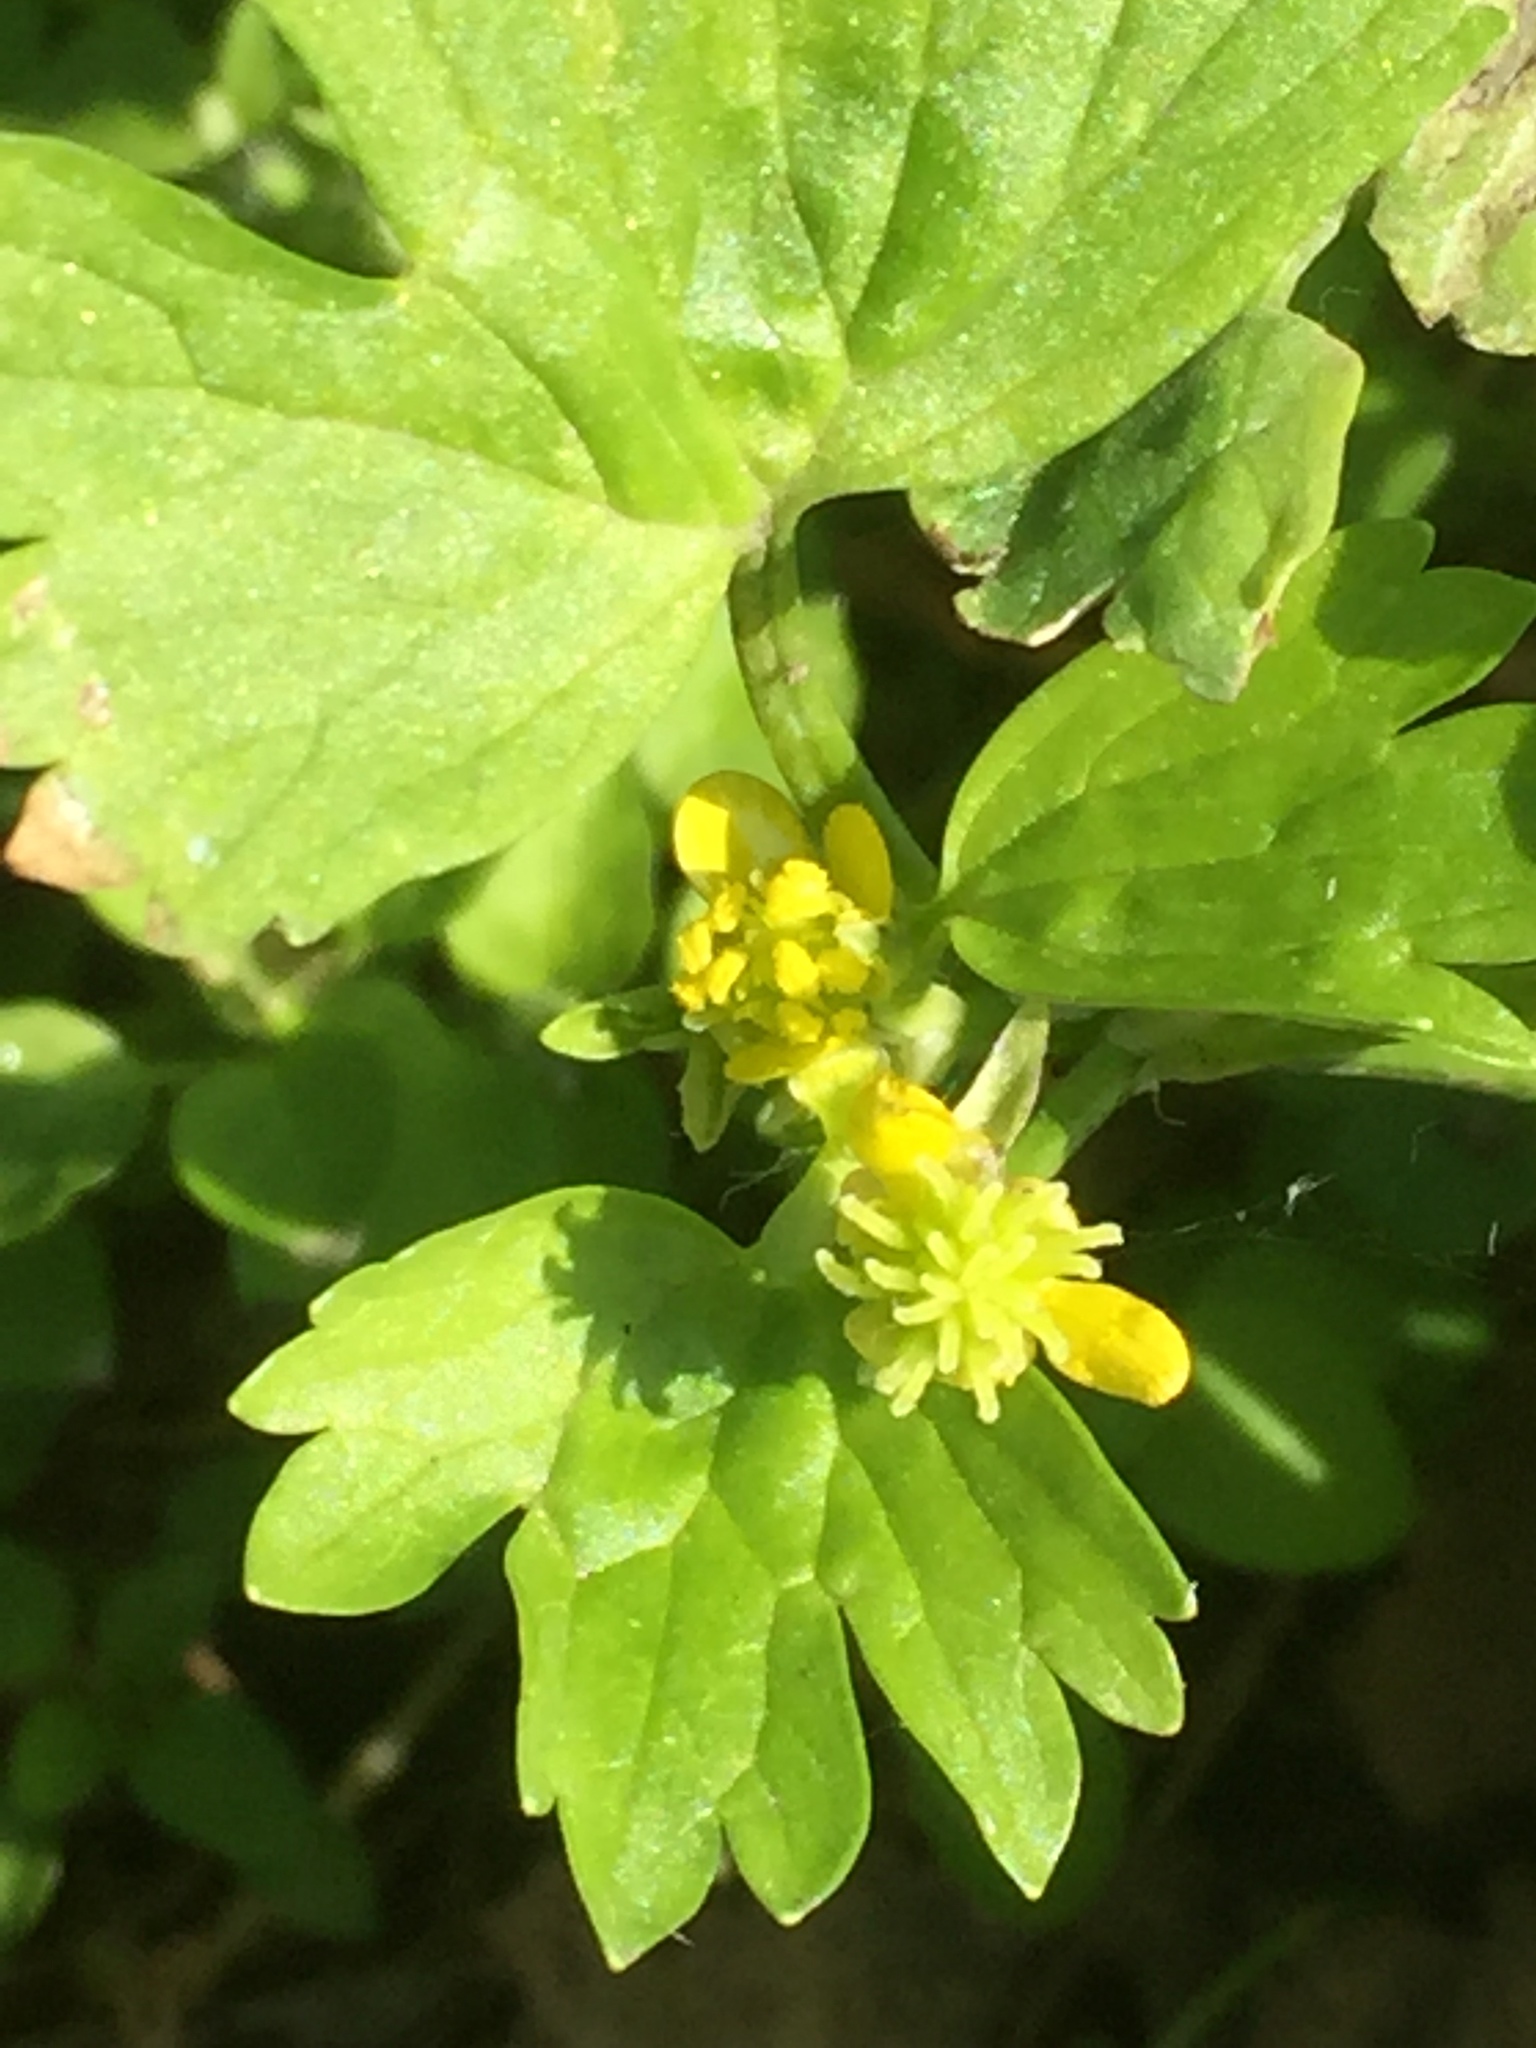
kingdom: Plantae
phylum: Tracheophyta
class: Magnoliopsida
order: Ranunculales
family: Ranunculaceae
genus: Ranunculus
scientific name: Ranunculus muricatus
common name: Rough-fruited buttercup
